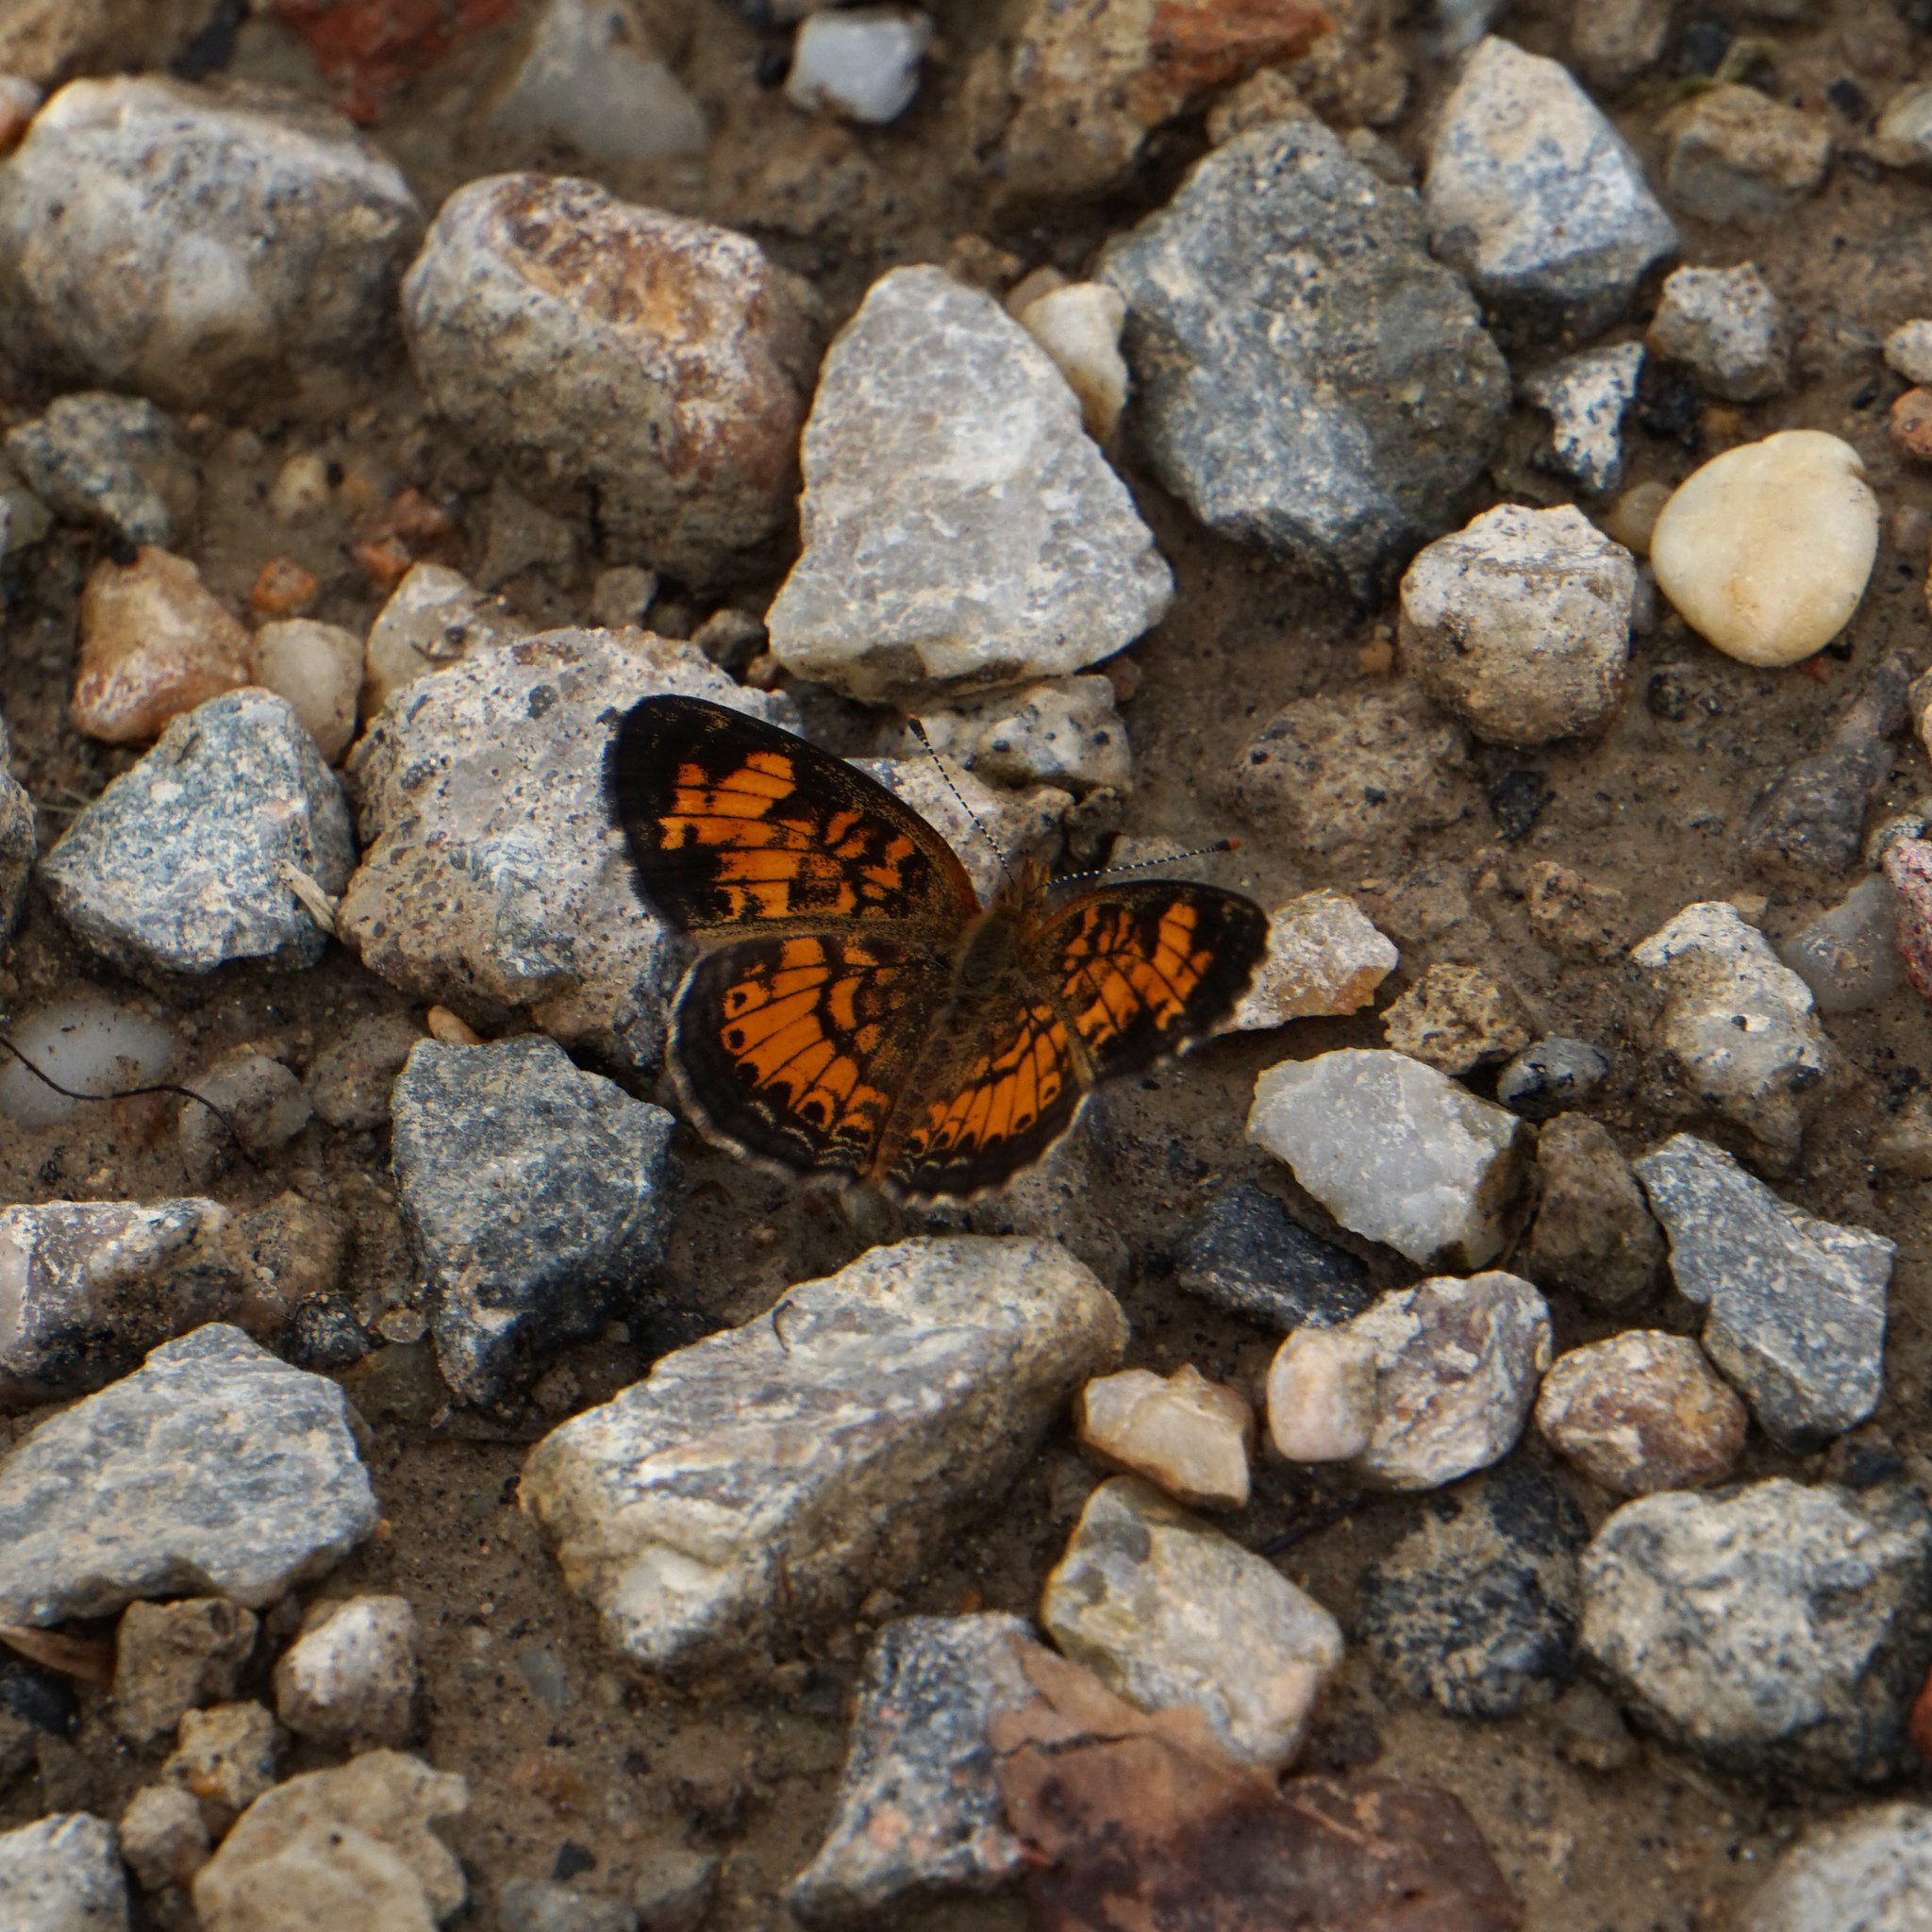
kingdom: Animalia
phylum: Arthropoda
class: Insecta
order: Lepidoptera
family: Nymphalidae
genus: Phyciodes
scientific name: Phyciodes tharos
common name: Pearl crescent
